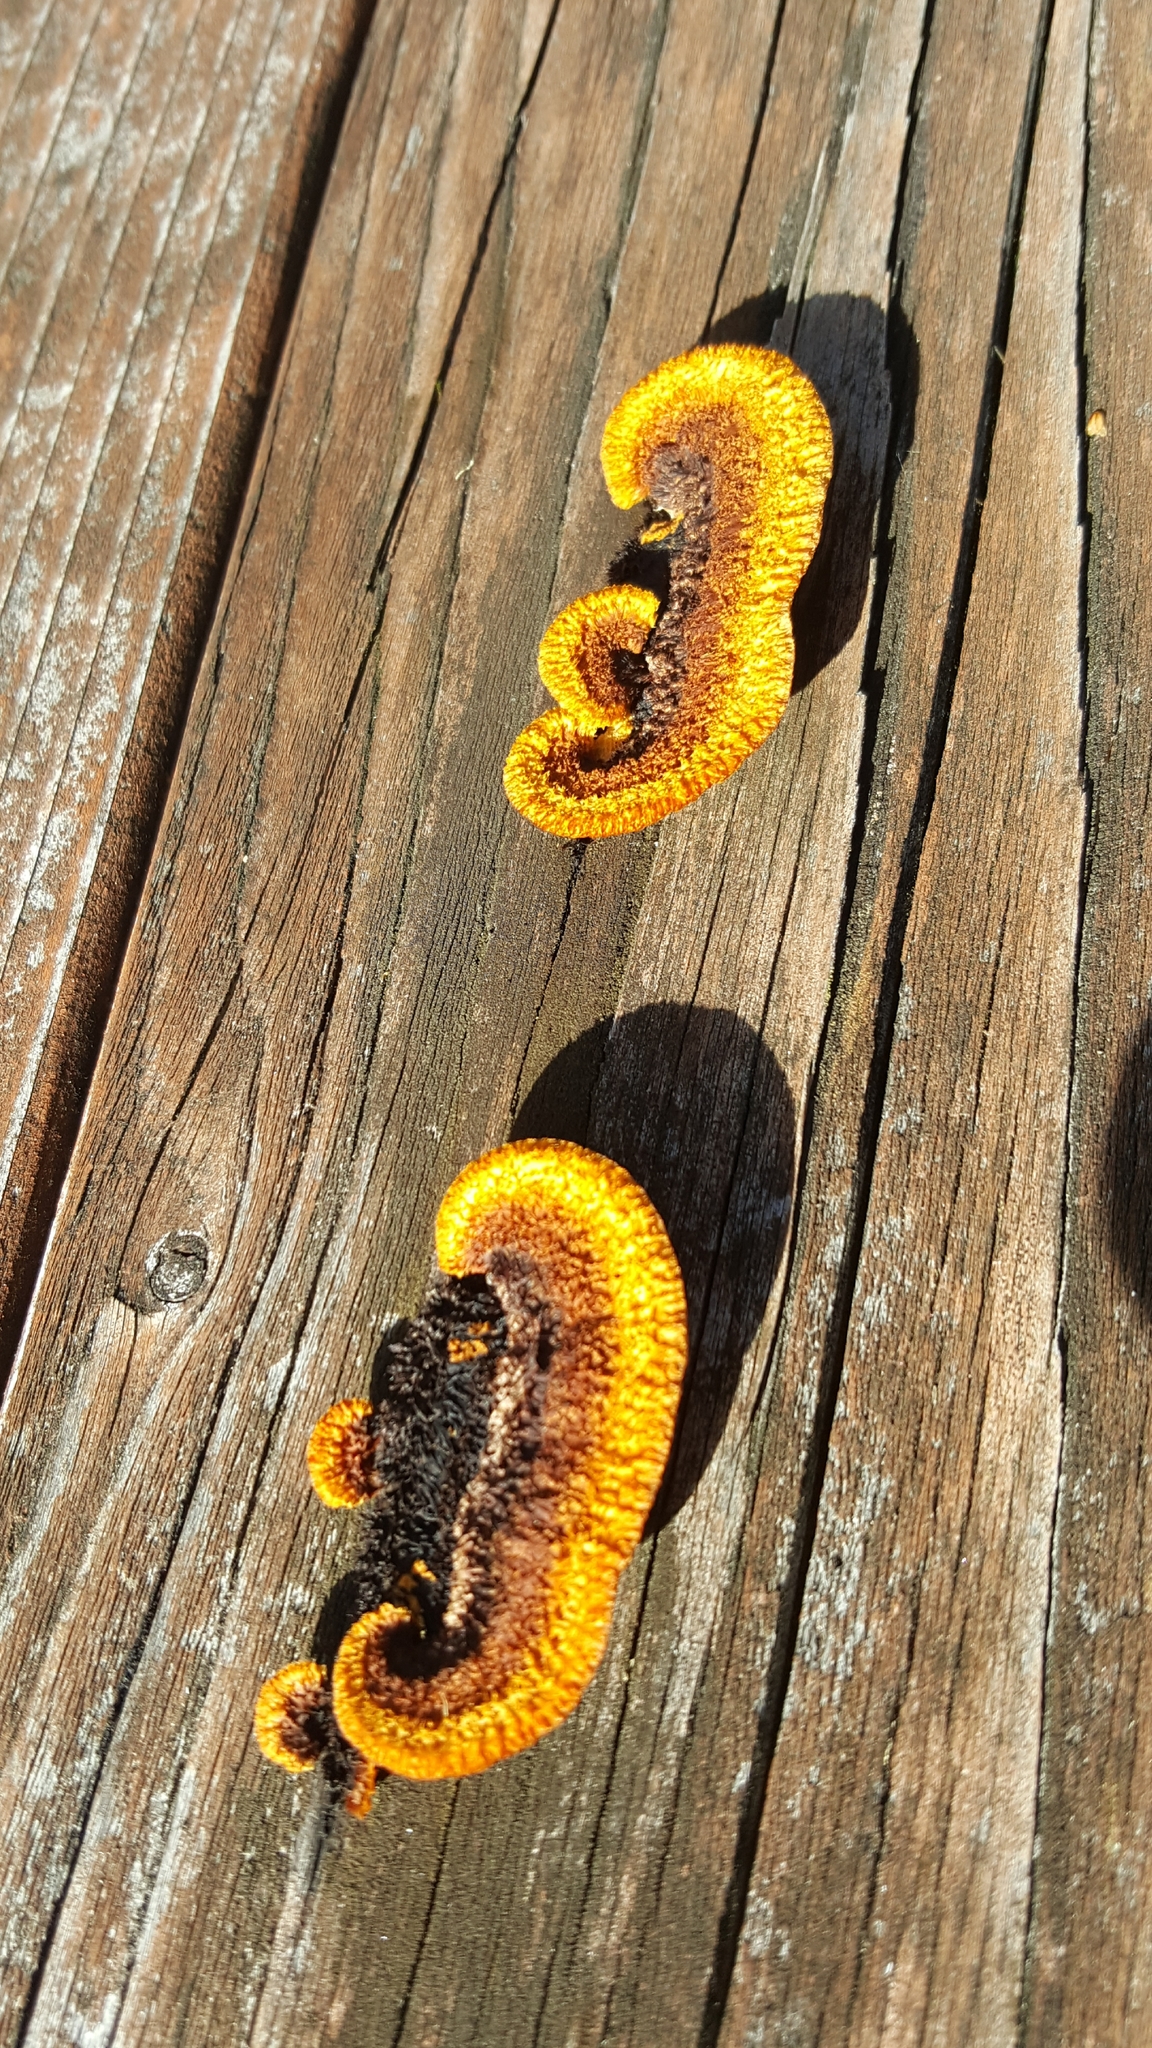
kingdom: Fungi
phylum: Basidiomycota
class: Agaricomycetes
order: Gloeophyllales
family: Gloeophyllaceae
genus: Gloeophyllum
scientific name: Gloeophyllum sepiarium
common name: Conifer mazegill
